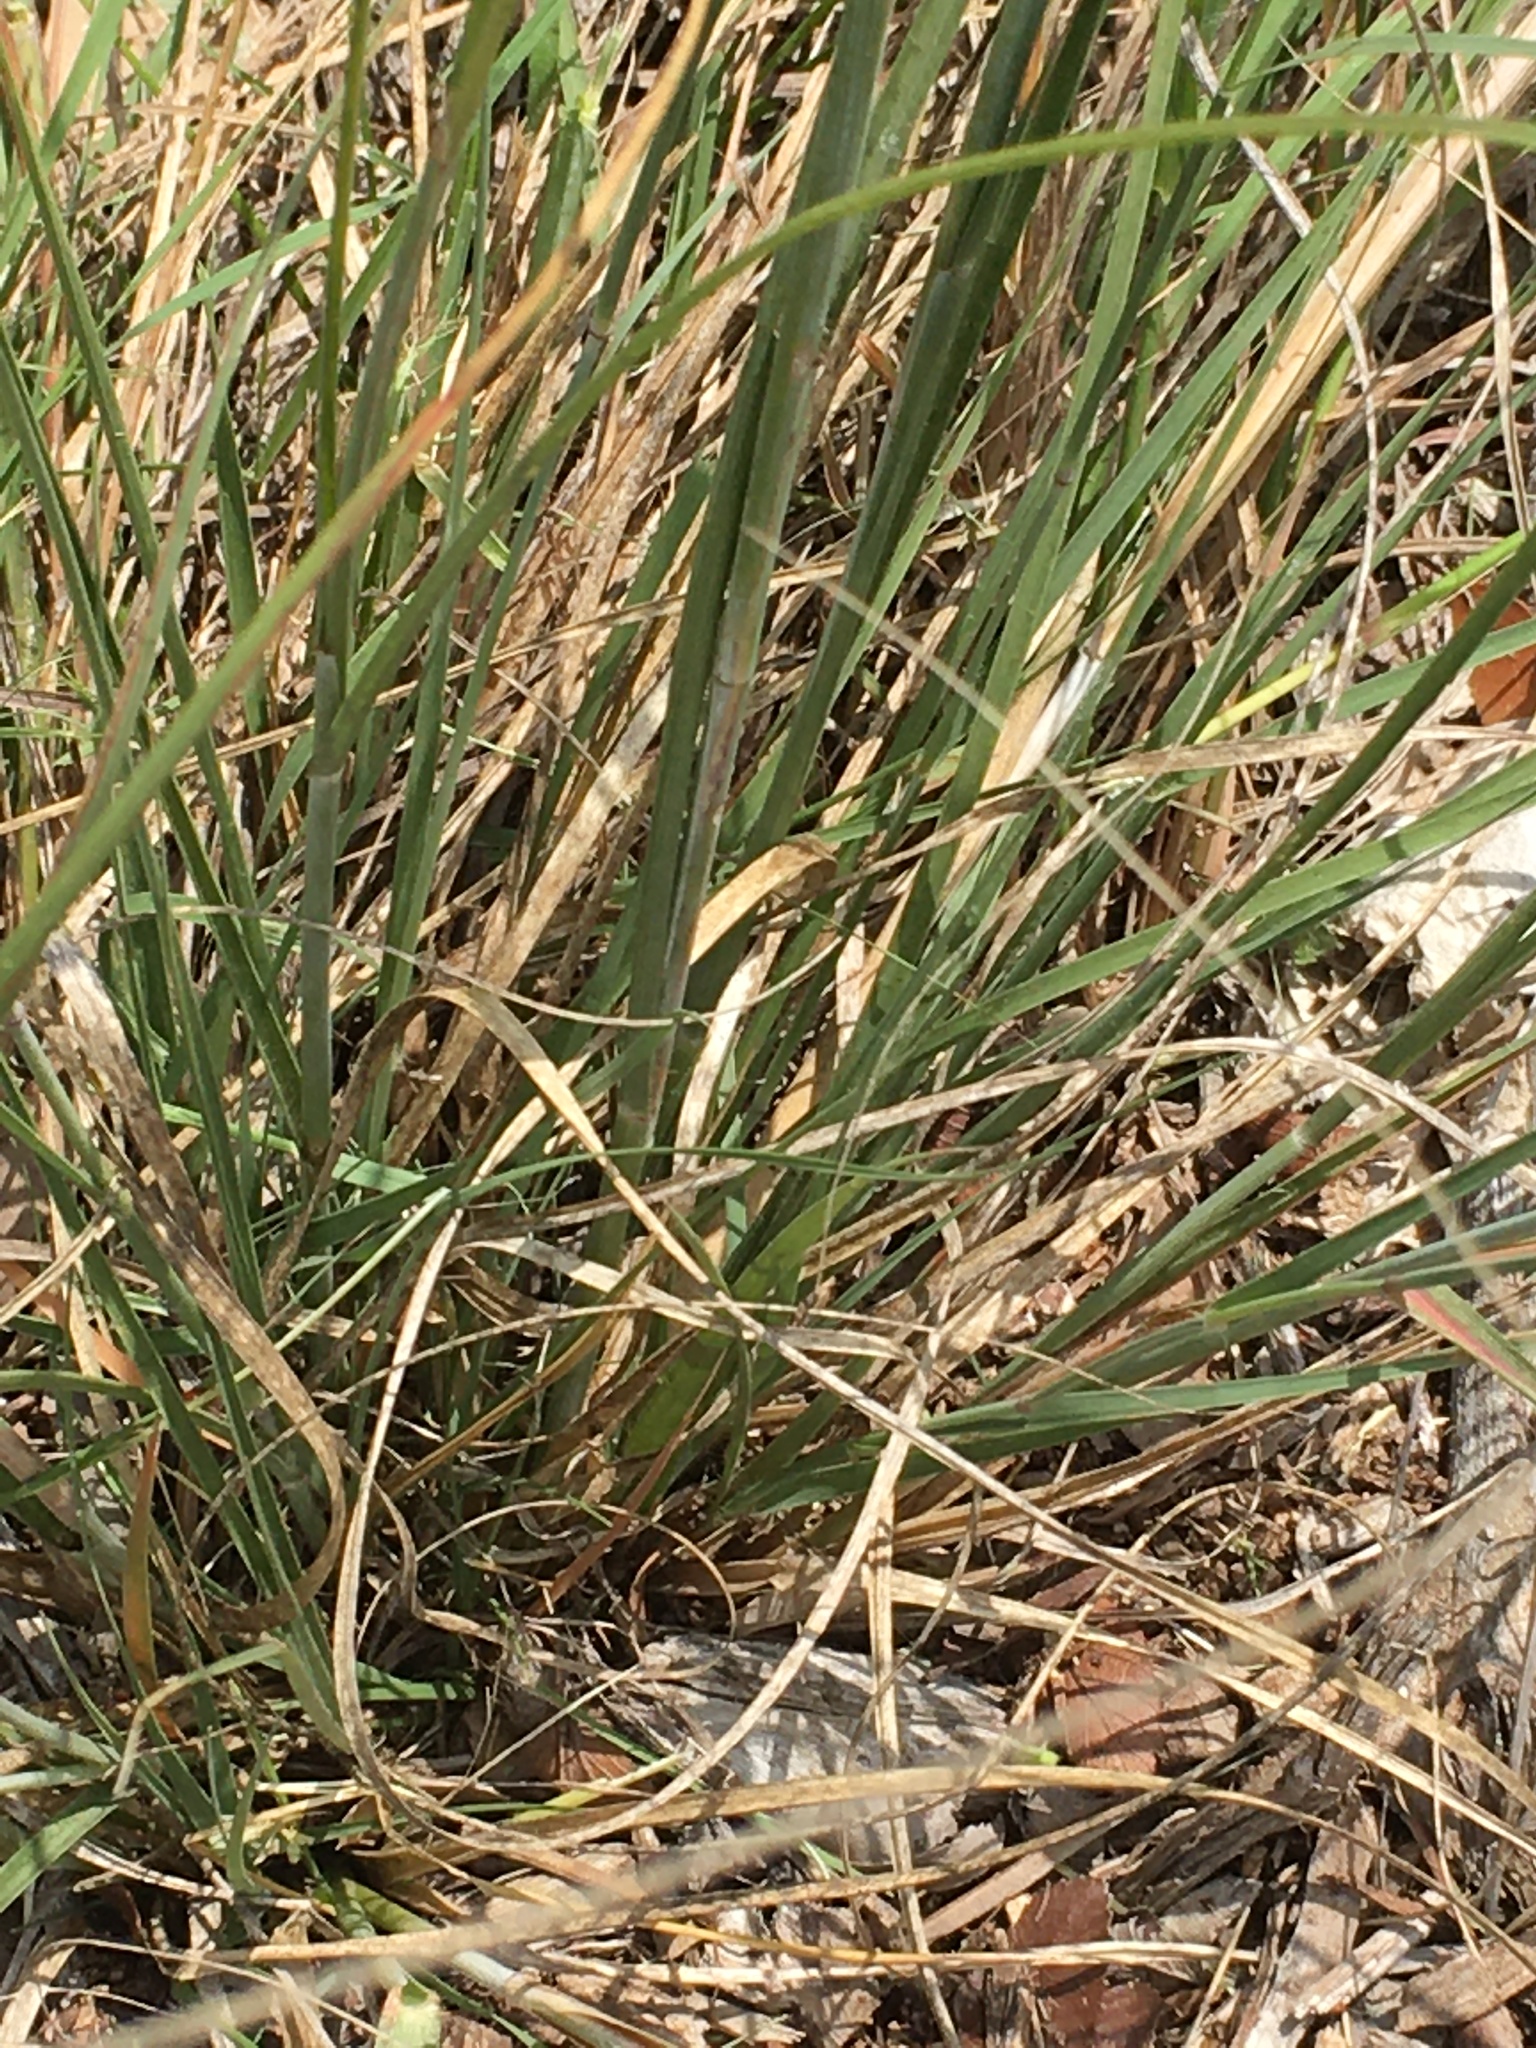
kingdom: Plantae
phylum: Tracheophyta
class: Liliopsida
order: Poales
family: Poaceae
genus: Sporobolus
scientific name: Sporobolus compositus
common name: Rough dropseed
